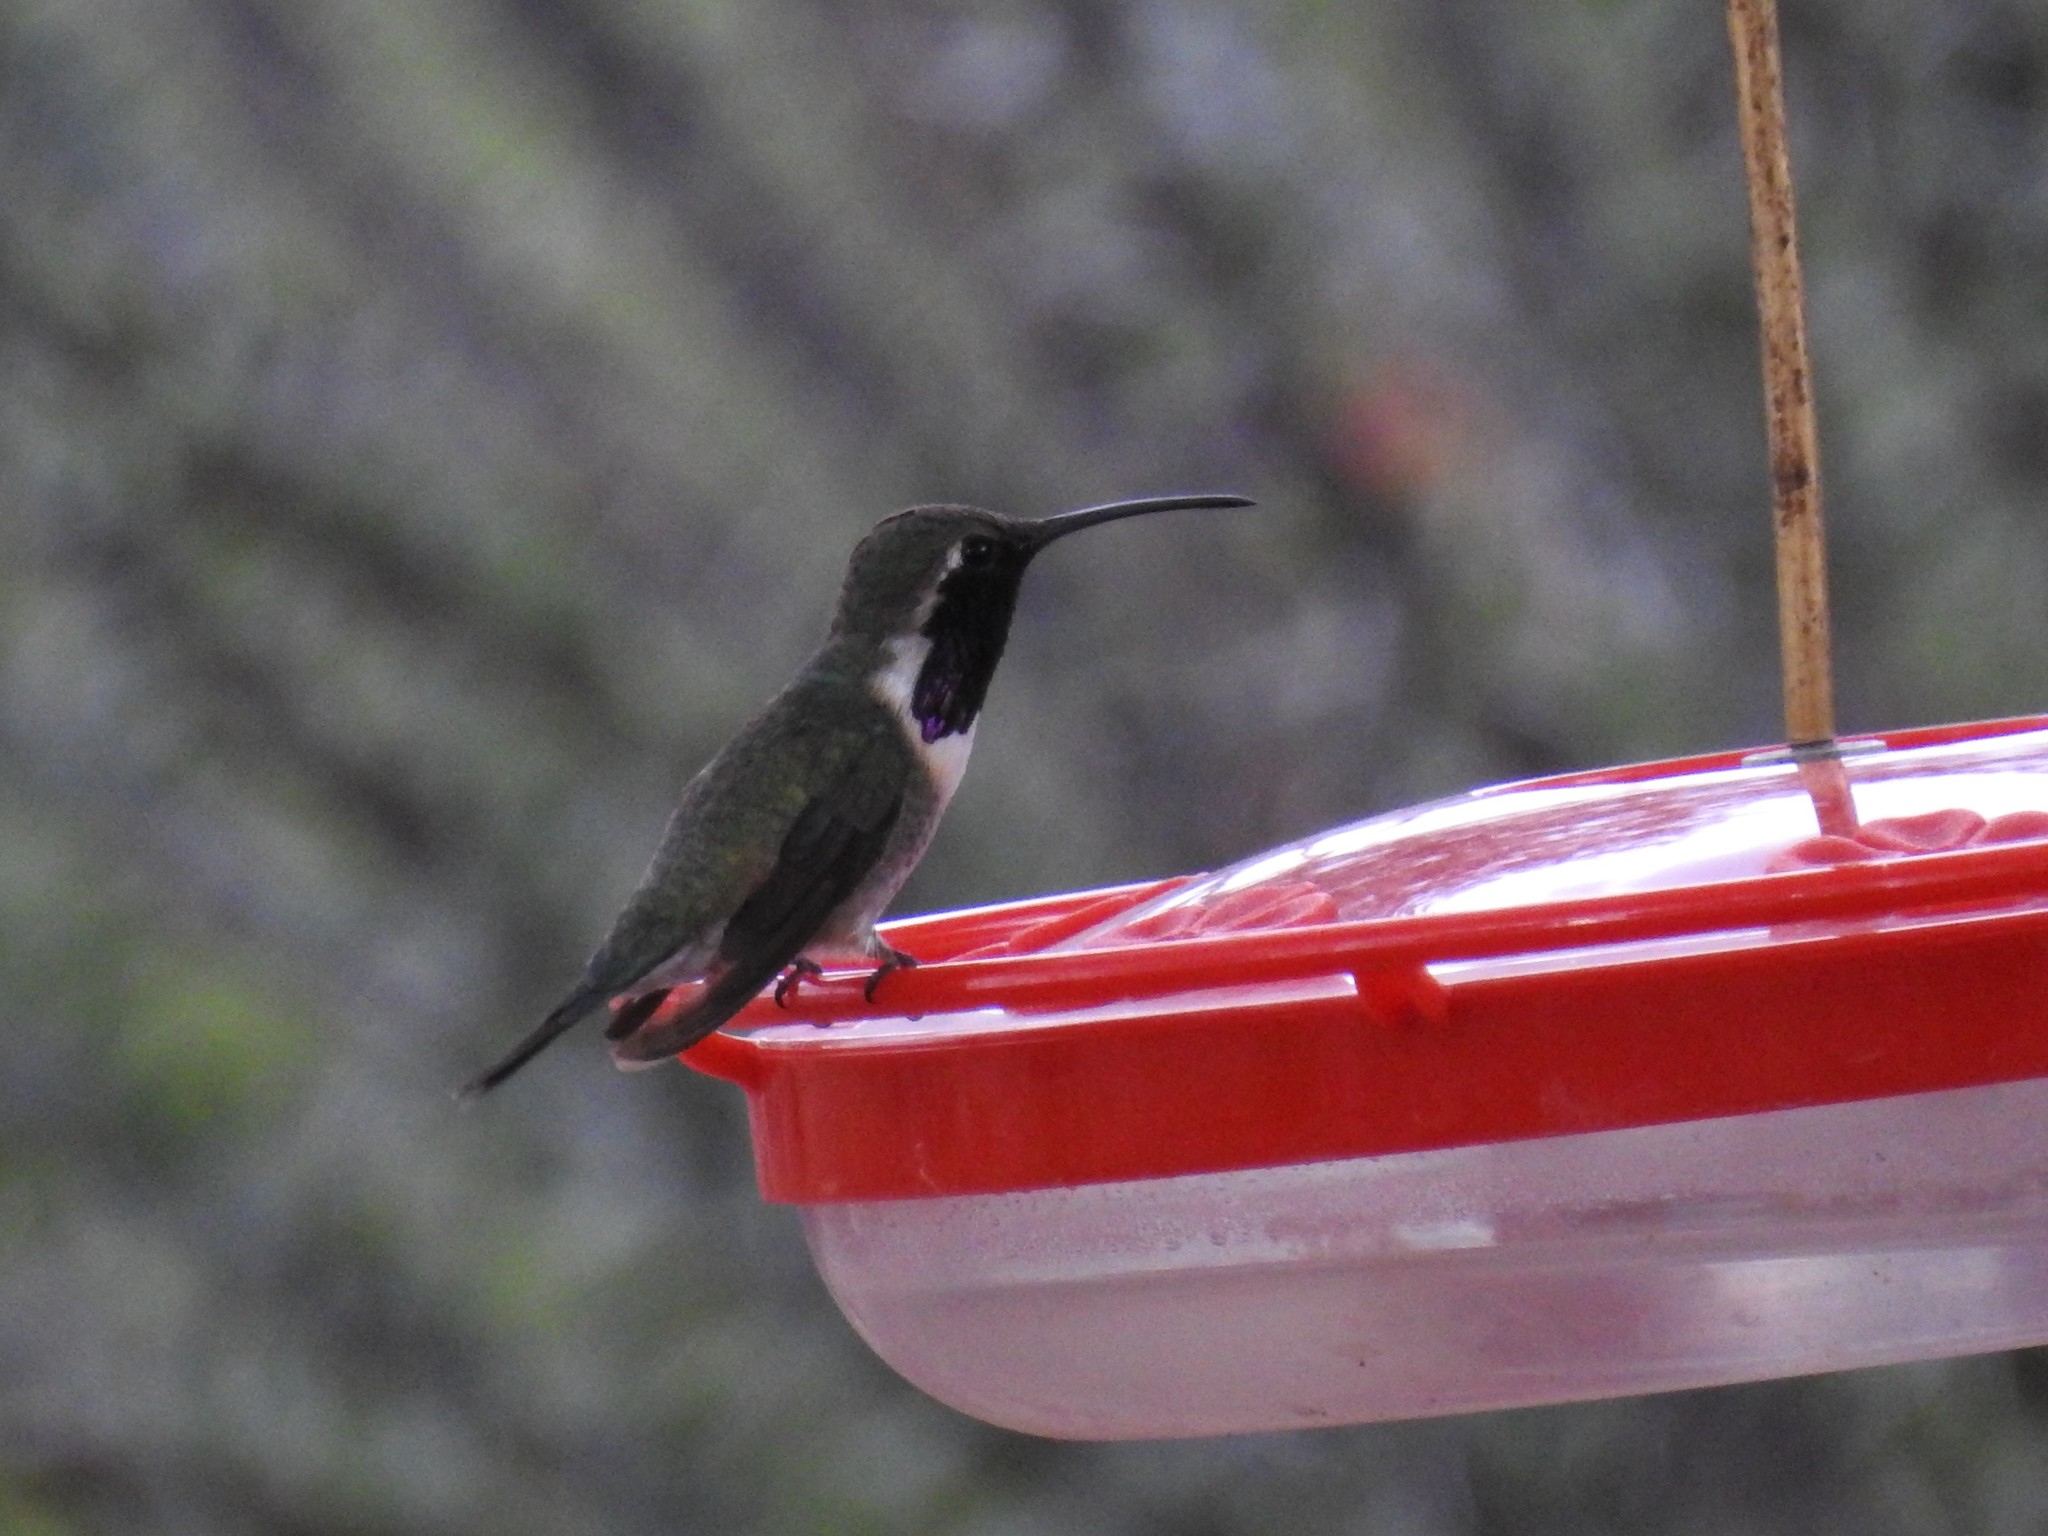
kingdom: Animalia
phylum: Chordata
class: Aves
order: Apodiformes
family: Trochilidae
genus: Calothorax
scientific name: Calothorax lucifer
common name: Lucifer sheartail
